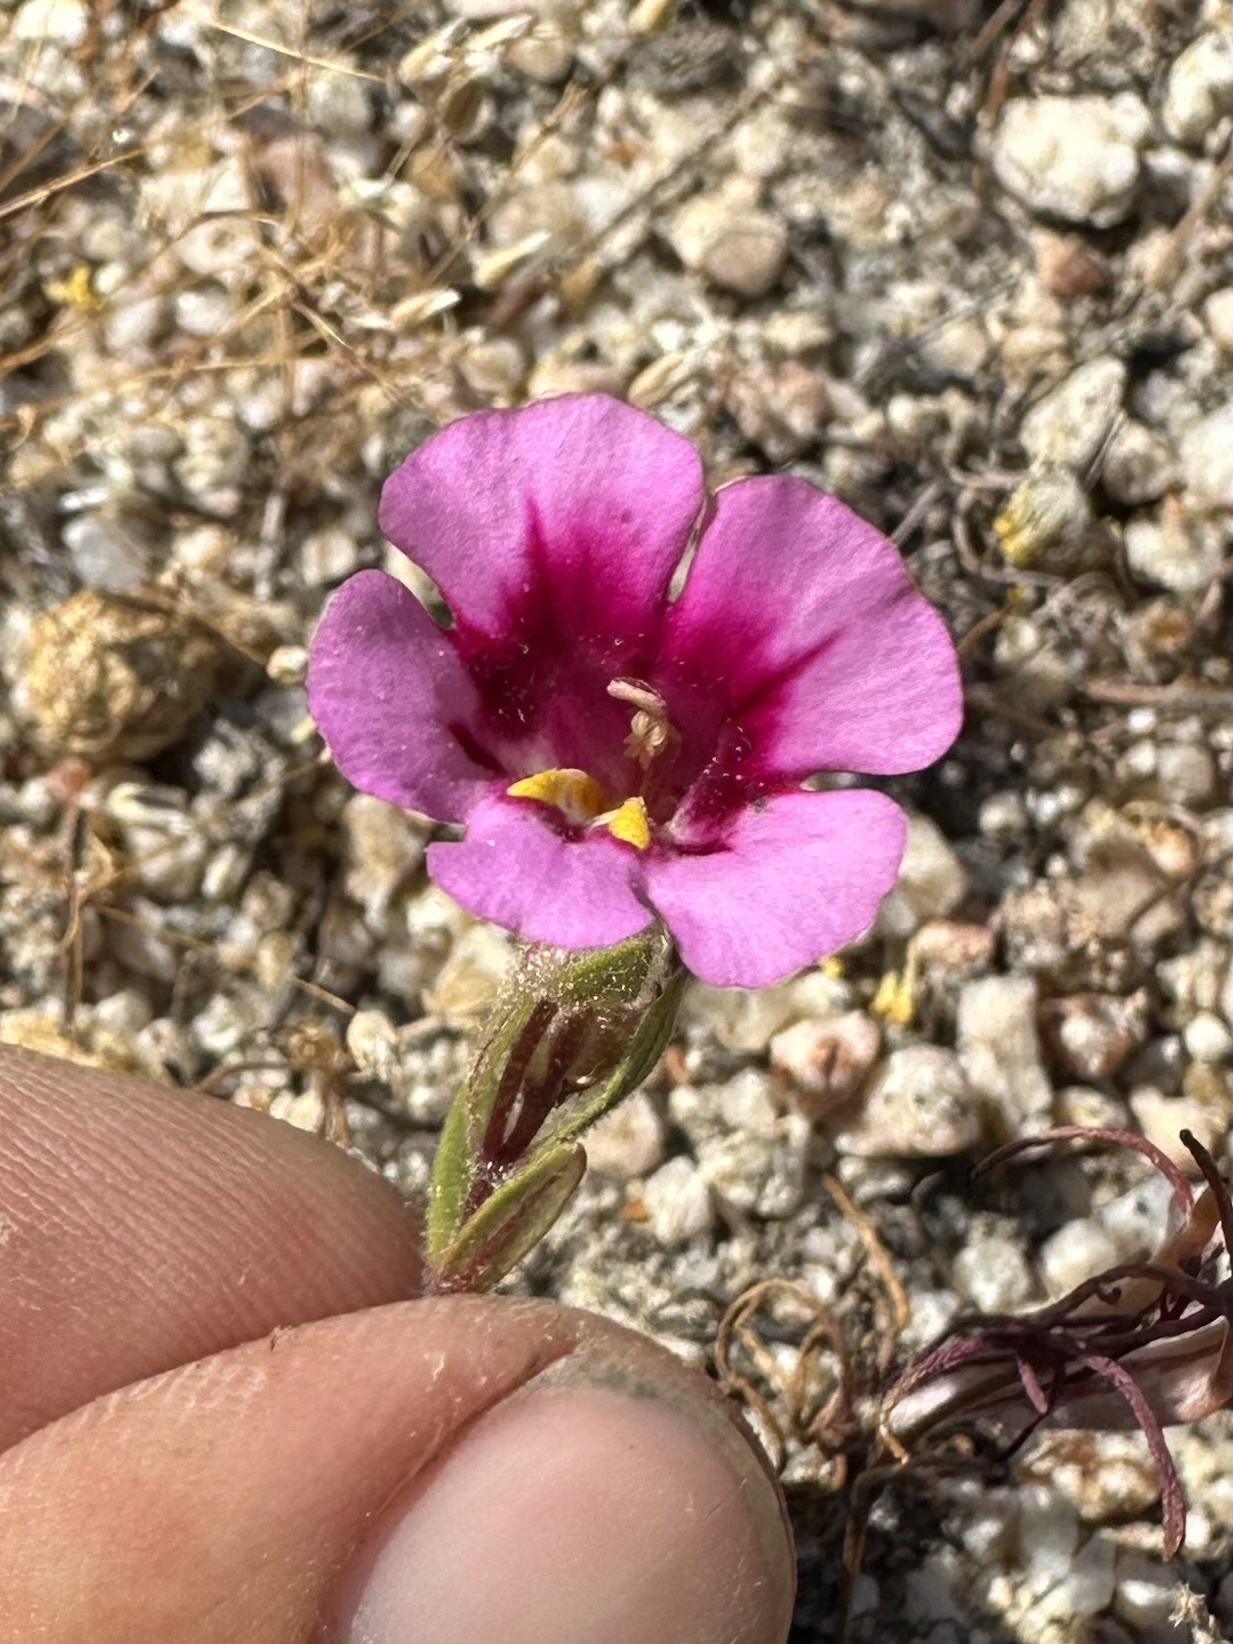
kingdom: Plantae
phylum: Tracheophyta
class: Magnoliopsida
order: Lamiales
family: Phrymaceae
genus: Diplacus
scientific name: Diplacus fremontii
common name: Fremont's monkey-flower
